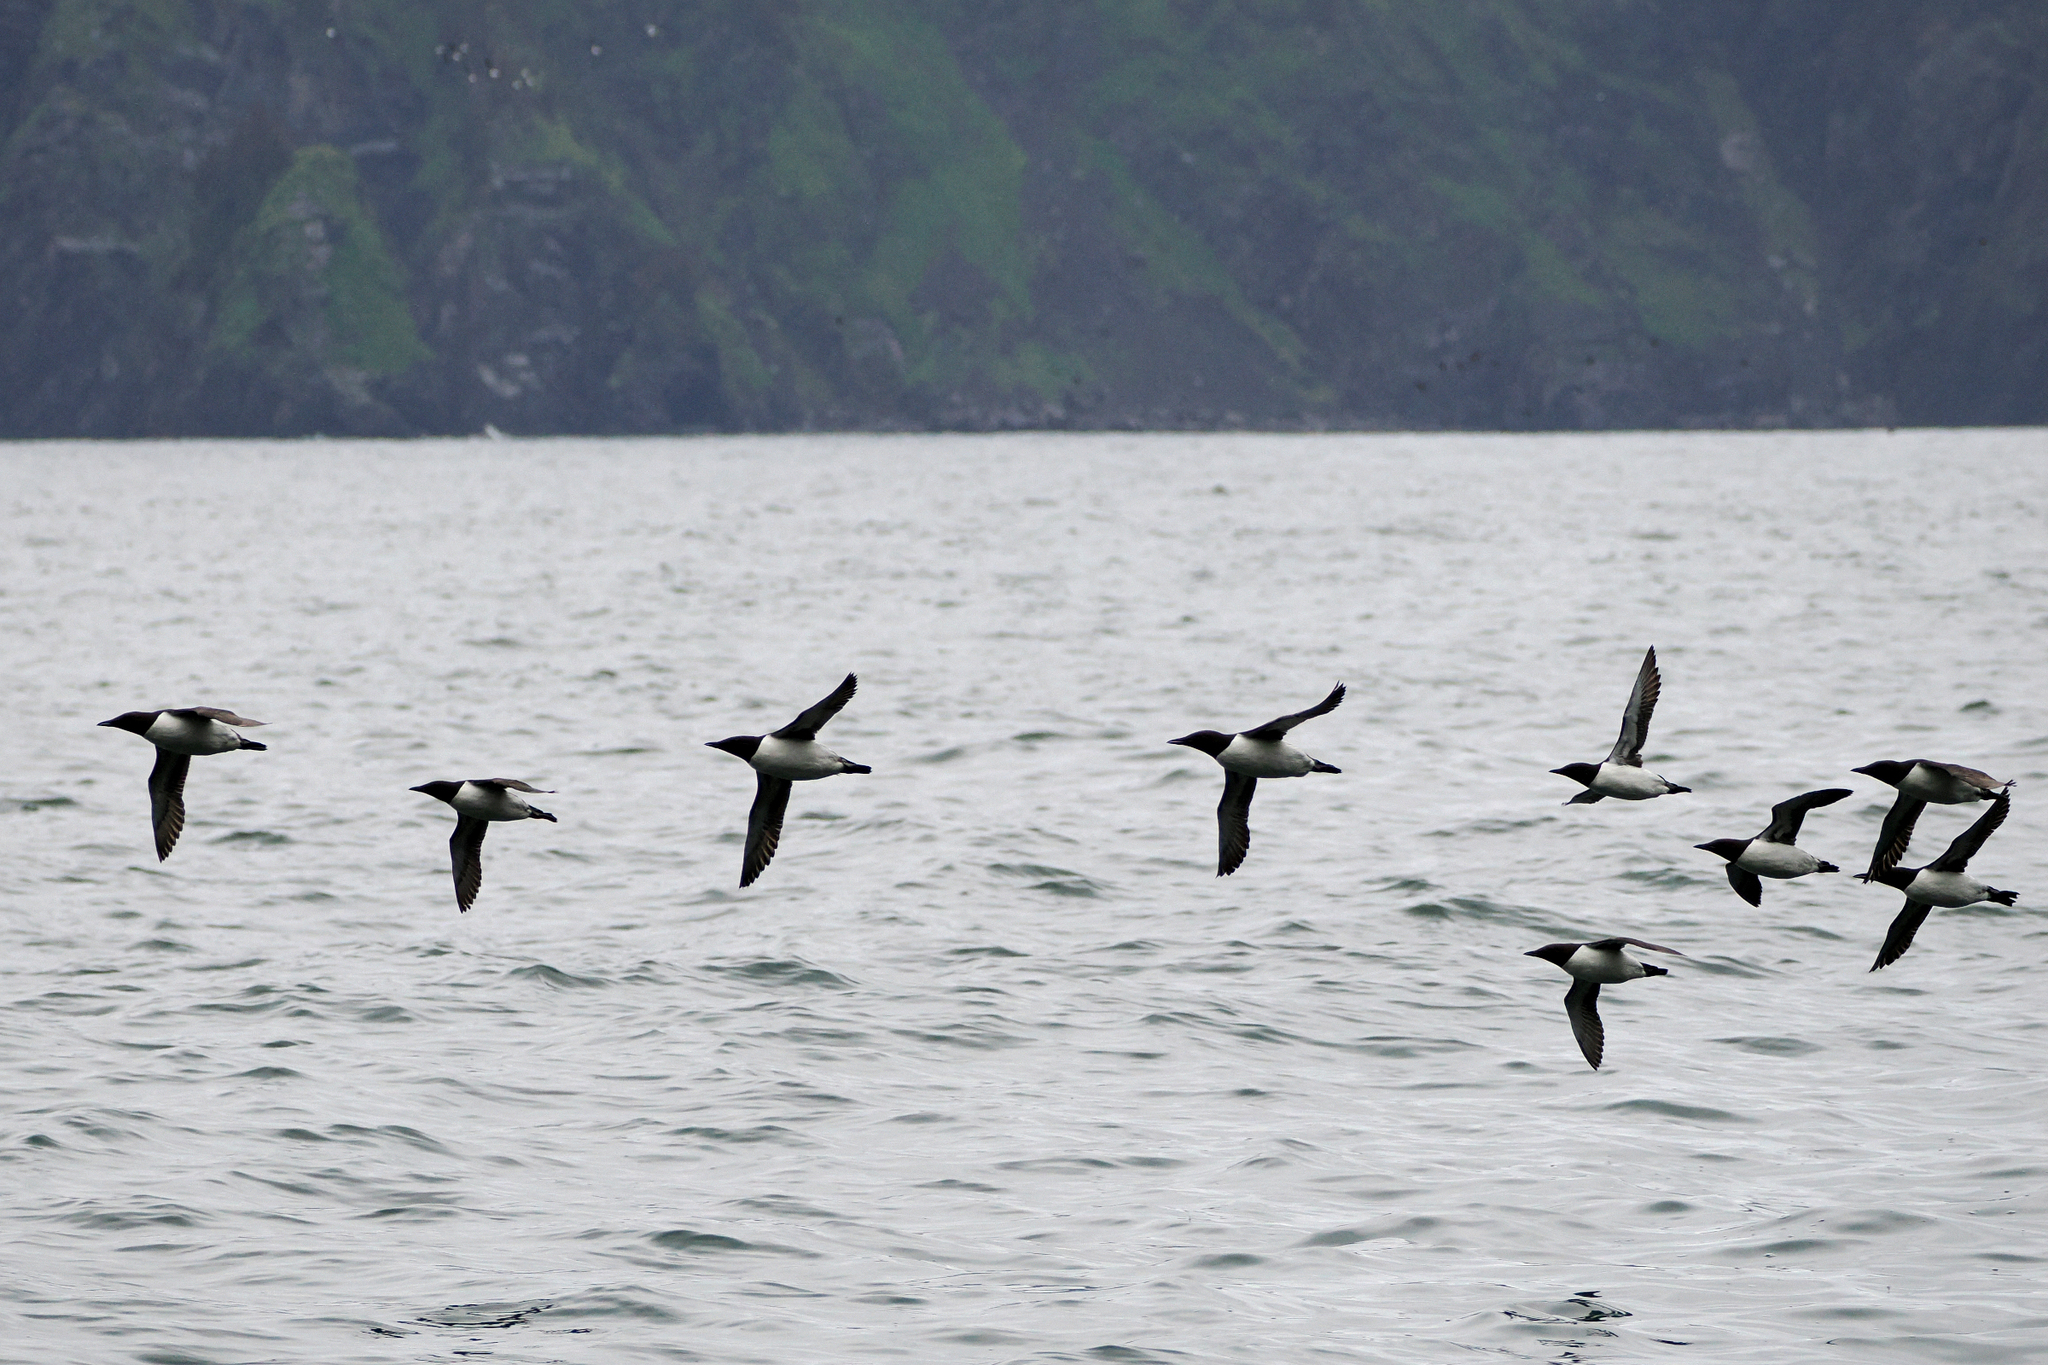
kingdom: Animalia
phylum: Chordata
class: Aves
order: Charadriiformes
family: Alcidae
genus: Uria
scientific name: Uria aalge
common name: Common murre
